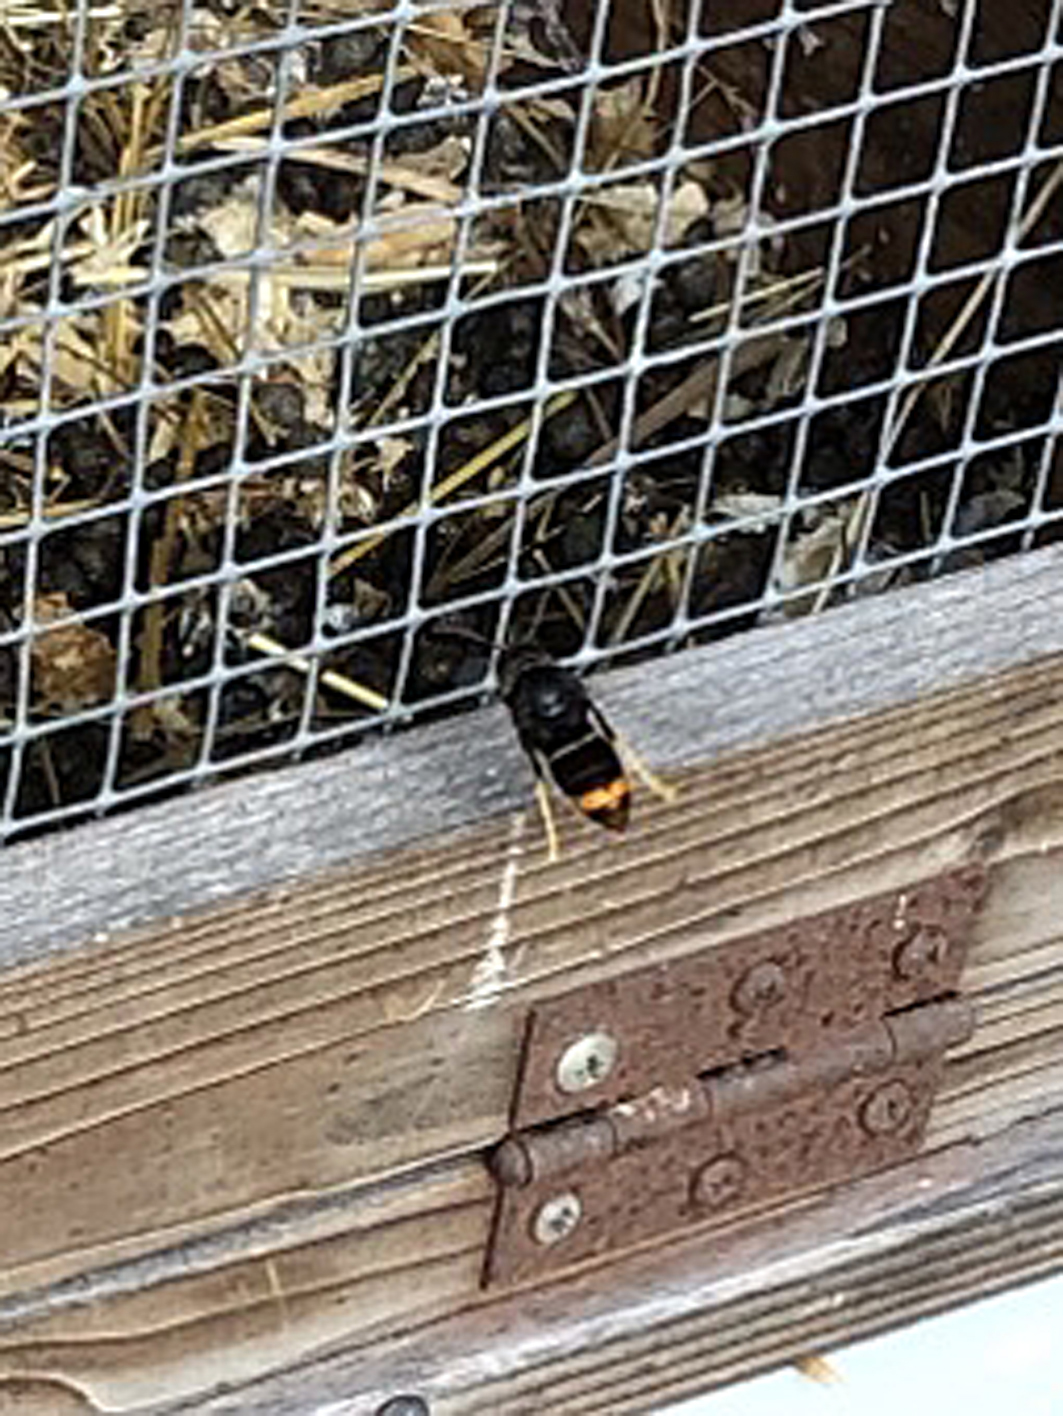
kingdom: Animalia
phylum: Arthropoda
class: Insecta
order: Hymenoptera
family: Vespidae
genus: Vespa
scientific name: Vespa velutina
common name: Asian hornet
